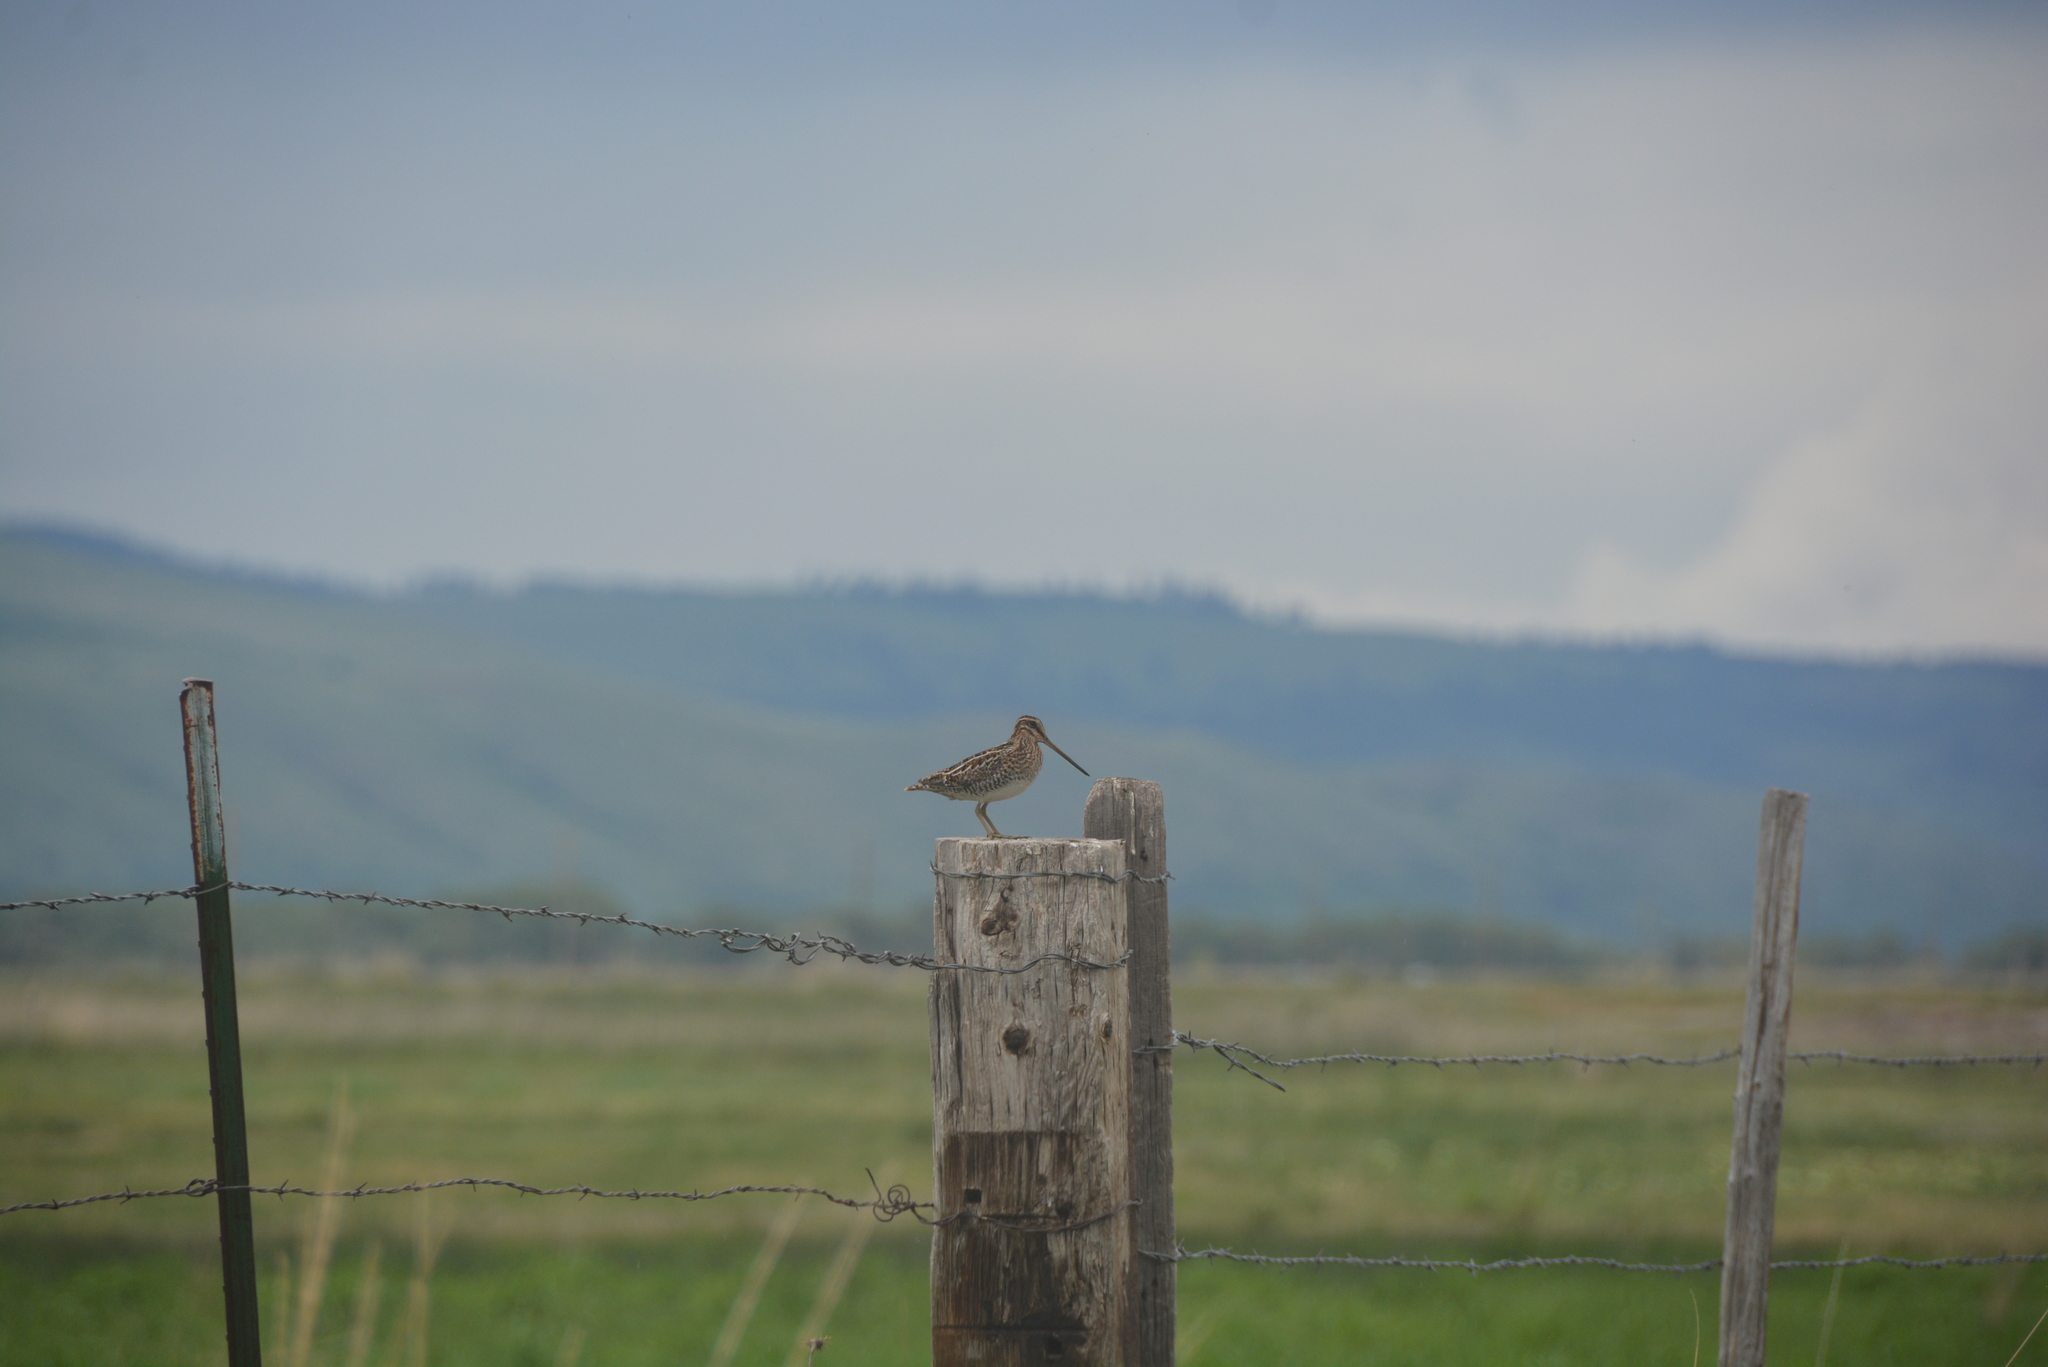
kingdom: Animalia
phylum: Chordata
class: Aves
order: Charadriiformes
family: Scolopacidae
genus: Gallinago
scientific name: Gallinago delicata
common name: Wilson's snipe
